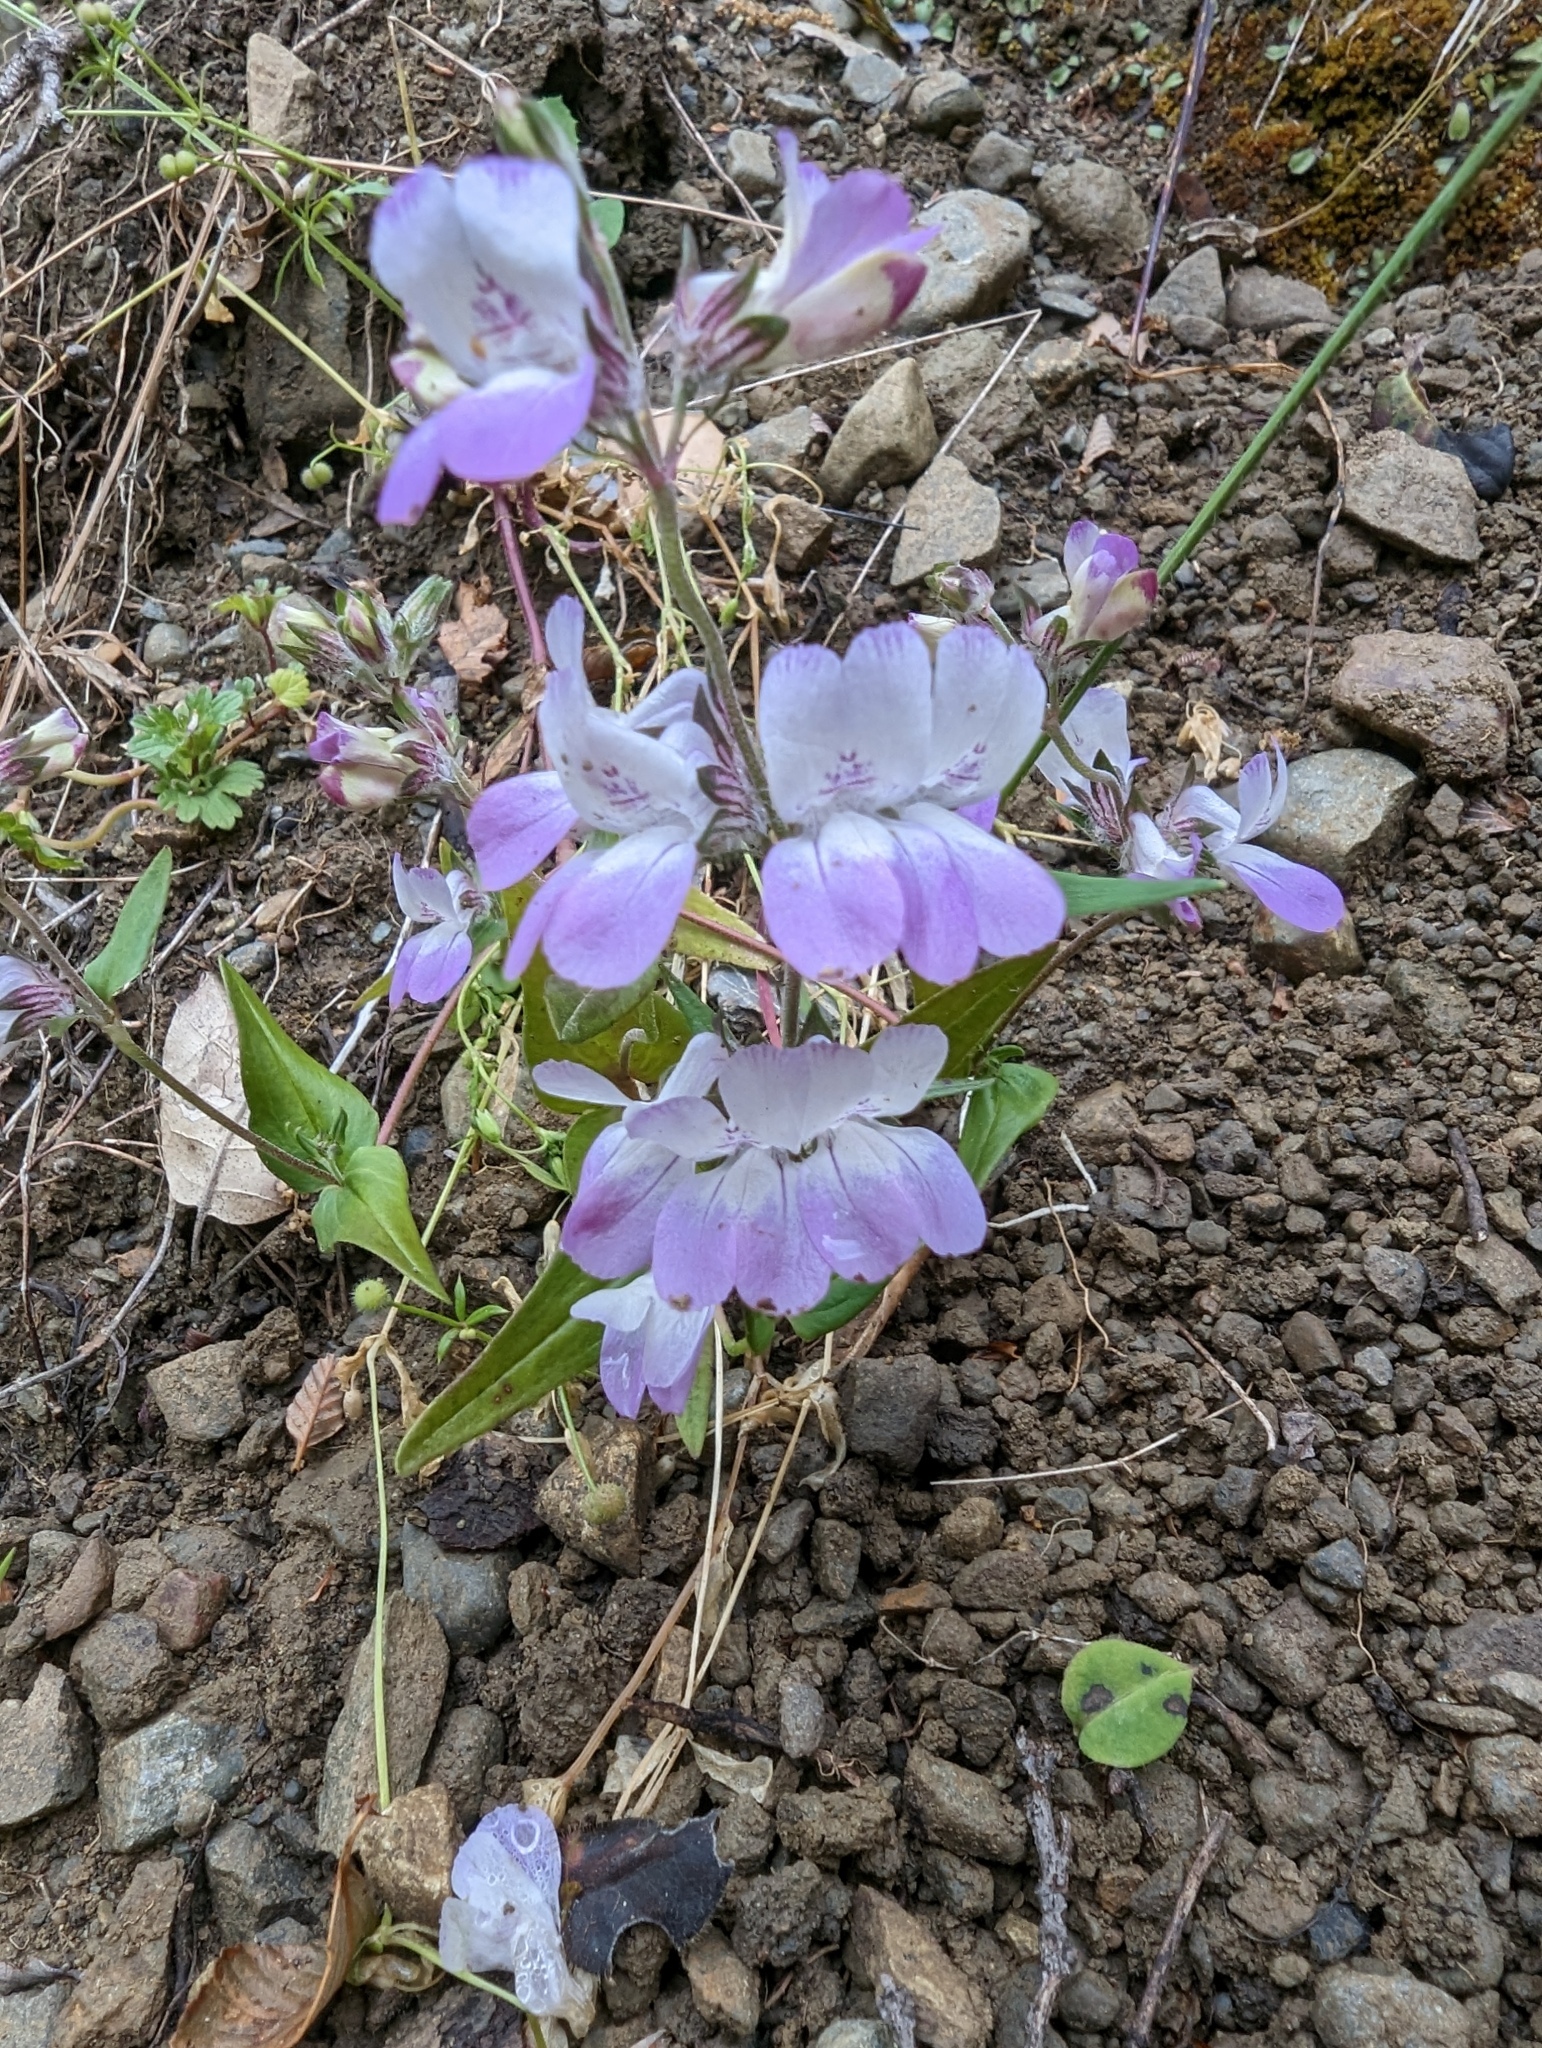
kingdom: Plantae
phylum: Tracheophyta
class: Magnoliopsida
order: Lamiales
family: Plantaginaceae
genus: Collinsia
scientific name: Collinsia heterophylla
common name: Chinese-houses
